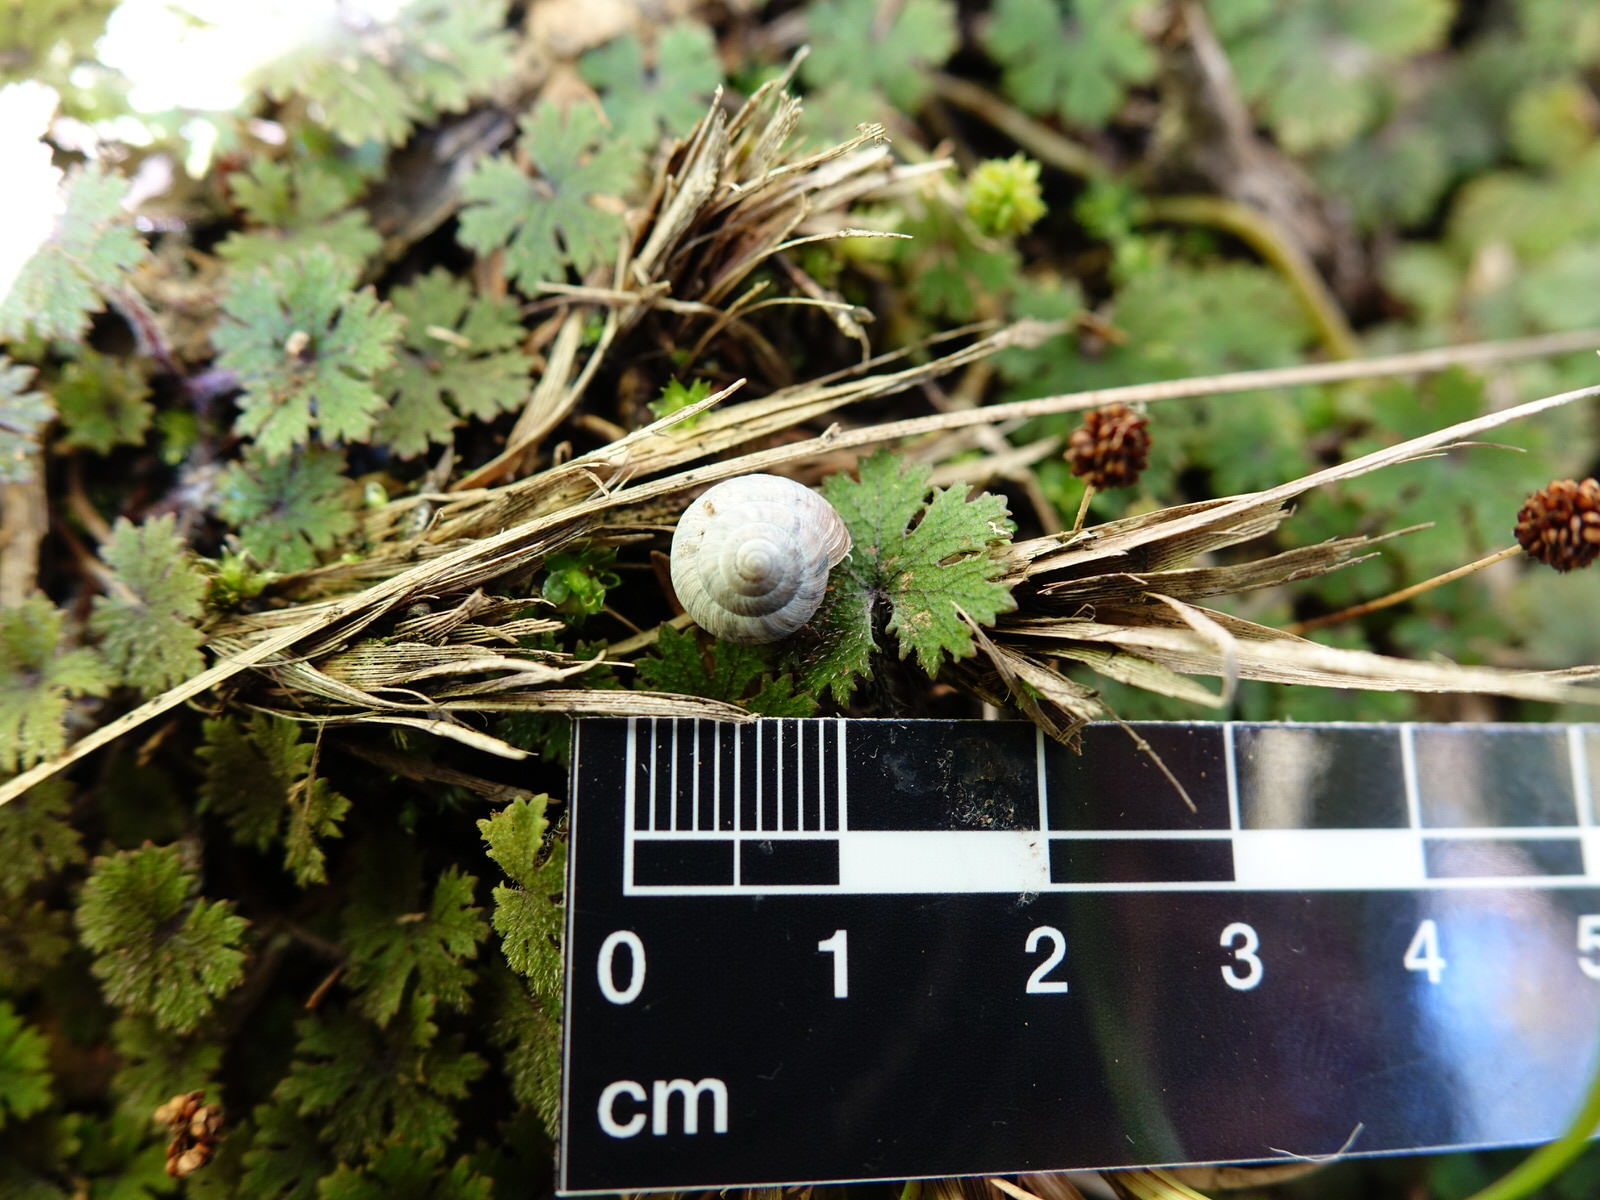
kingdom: Animalia
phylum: Mollusca
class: Gastropoda
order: Stylommatophora
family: Charopidae
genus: Serpho
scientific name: Serpho
